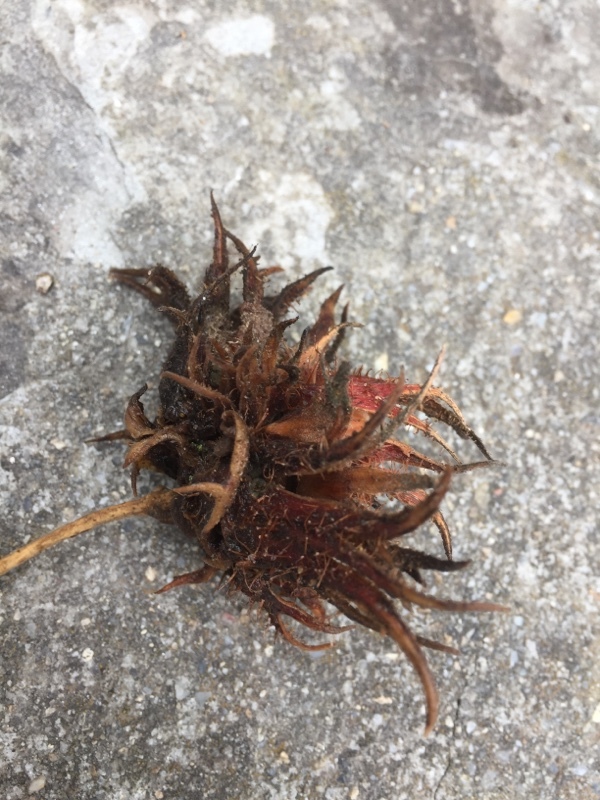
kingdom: Plantae
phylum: Tracheophyta
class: Magnoliopsida
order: Fagales
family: Betulaceae
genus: Corylus
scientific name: Corylus colurna
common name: Turkish hazel
